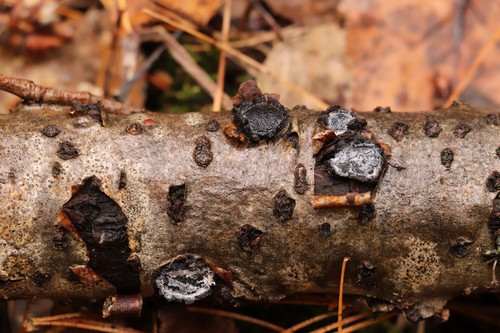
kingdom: Fungi
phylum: Ascomycota
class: Sordariomycetes
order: Xylariales
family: Graphostromataceae
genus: Biscogniauxia
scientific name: Biscogniauxia repanda
